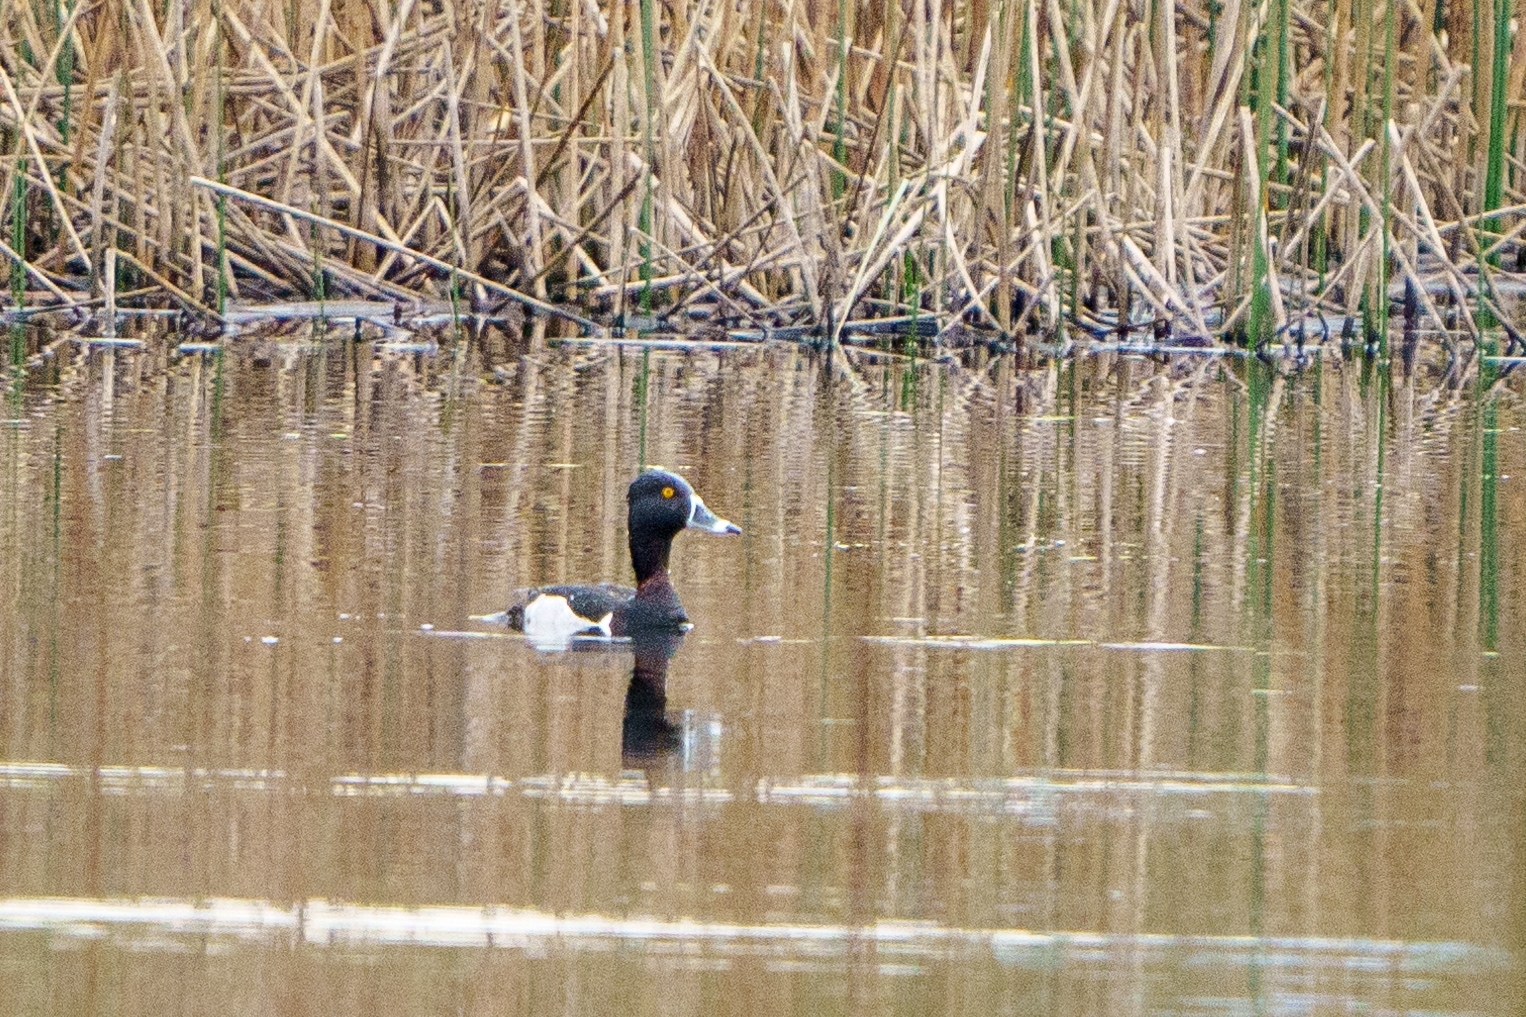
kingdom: Animalia
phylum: Chordata
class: Aves
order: Anseriformes
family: Anatidae
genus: Aythya
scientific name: Aythya collaris
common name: Ring-necked duck
